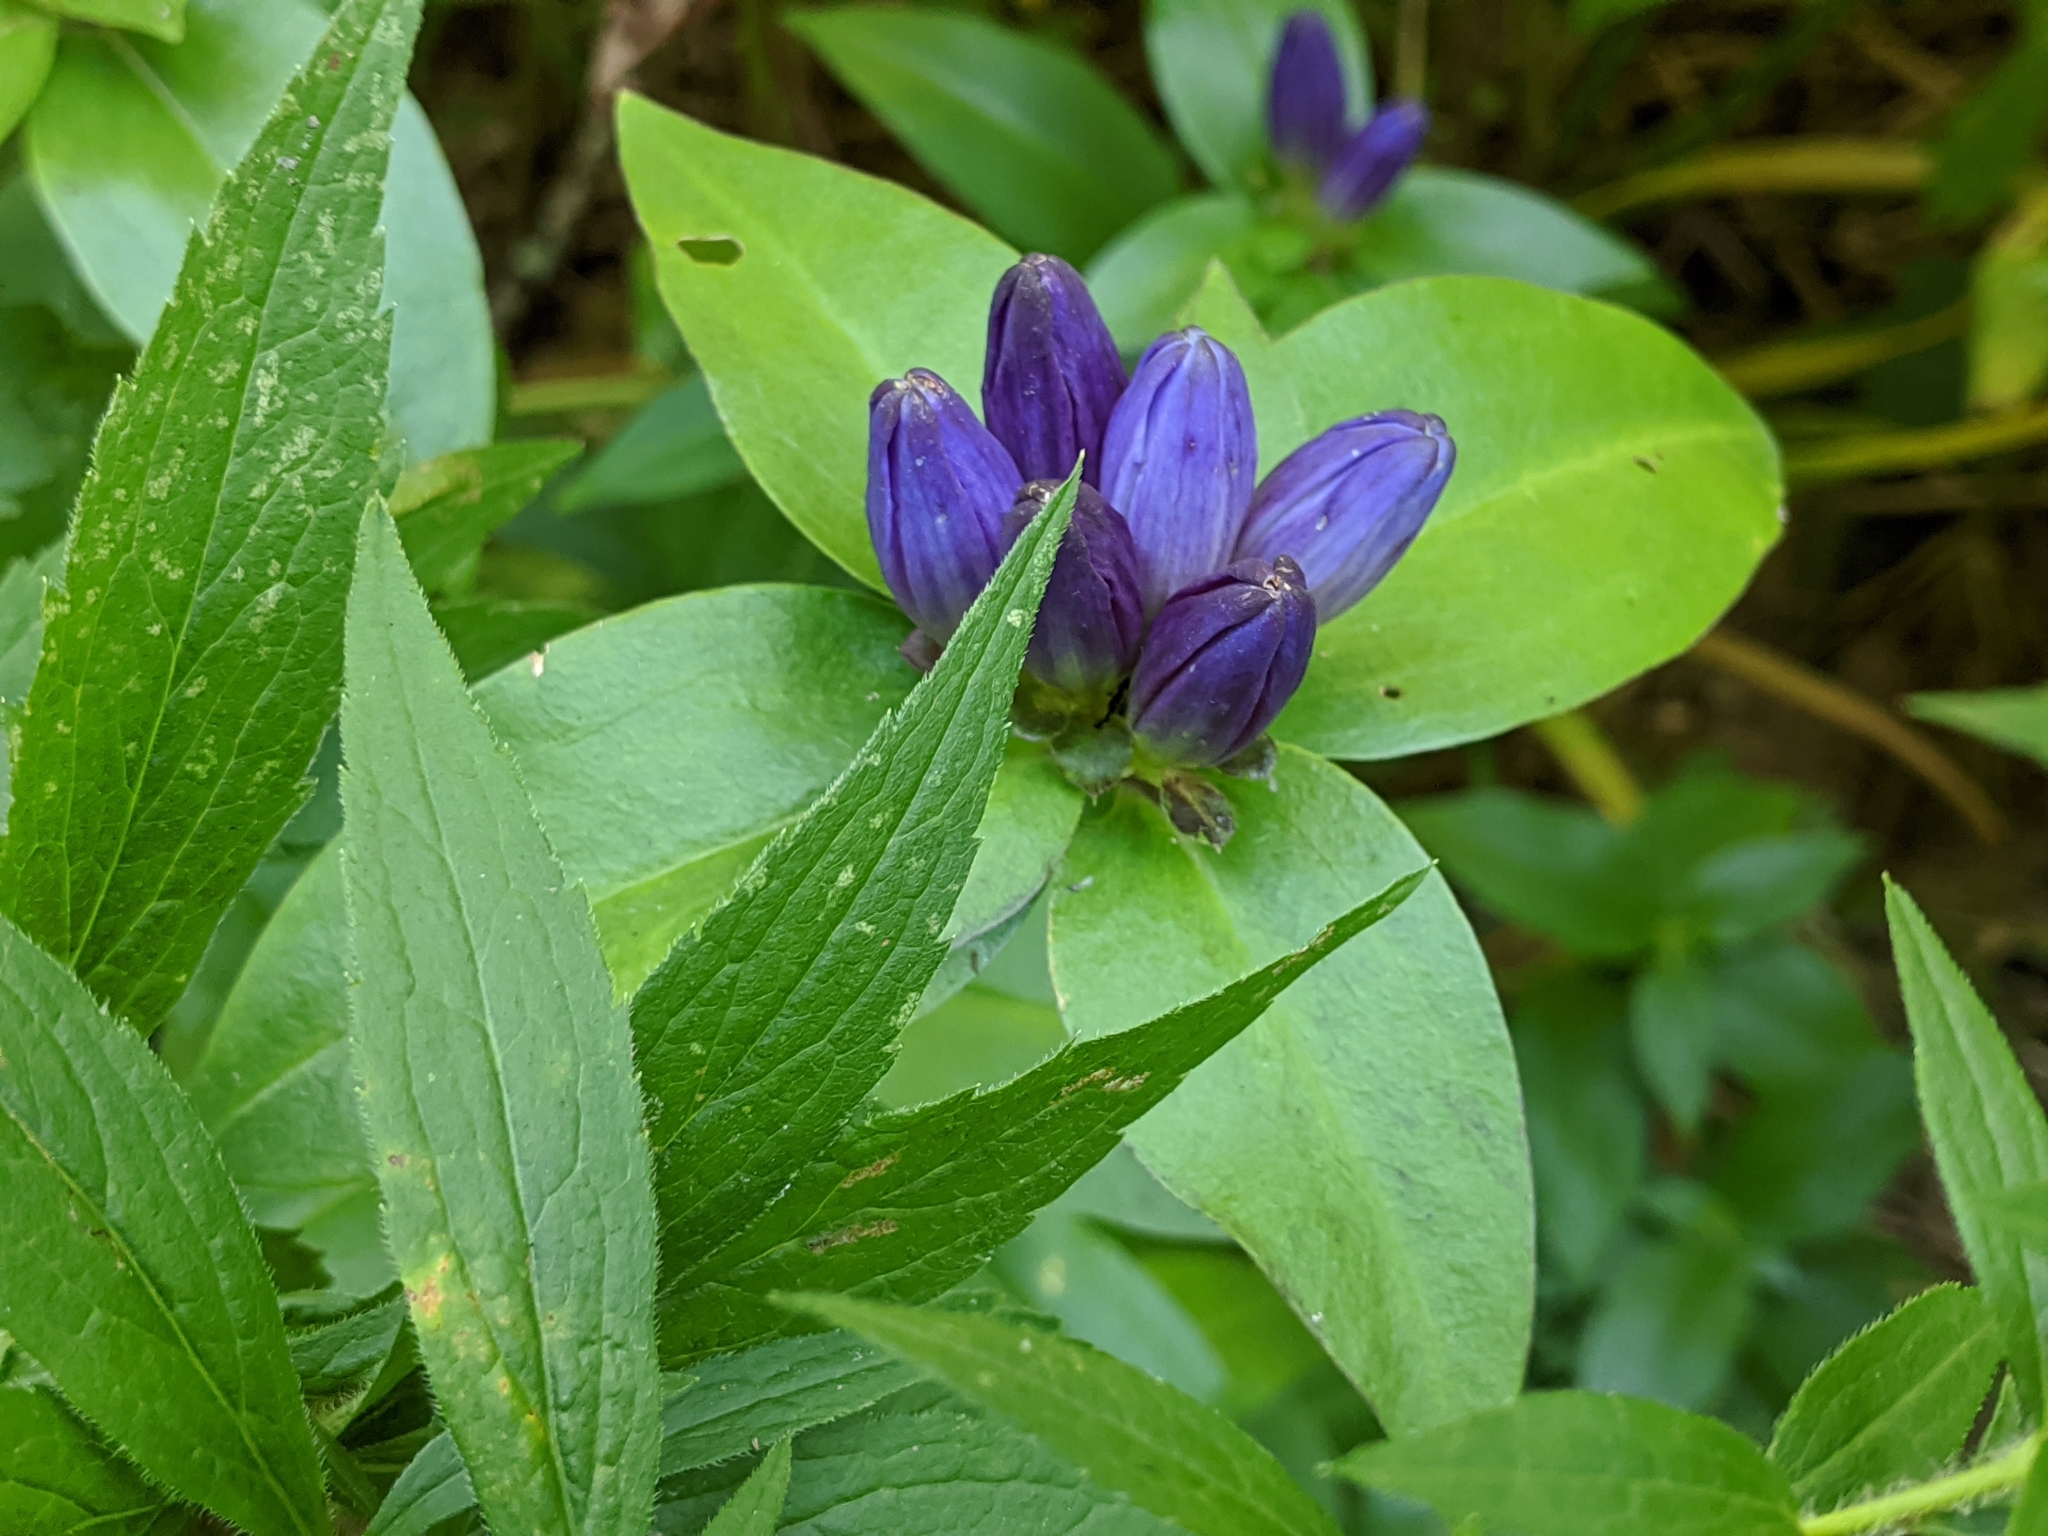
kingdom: Plantae
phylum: Tracheophyta
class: Magnoliopsida
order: Gentianales
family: Gentianaceae
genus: Gentiana
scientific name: Gentiana clausa
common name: Blind gentian
